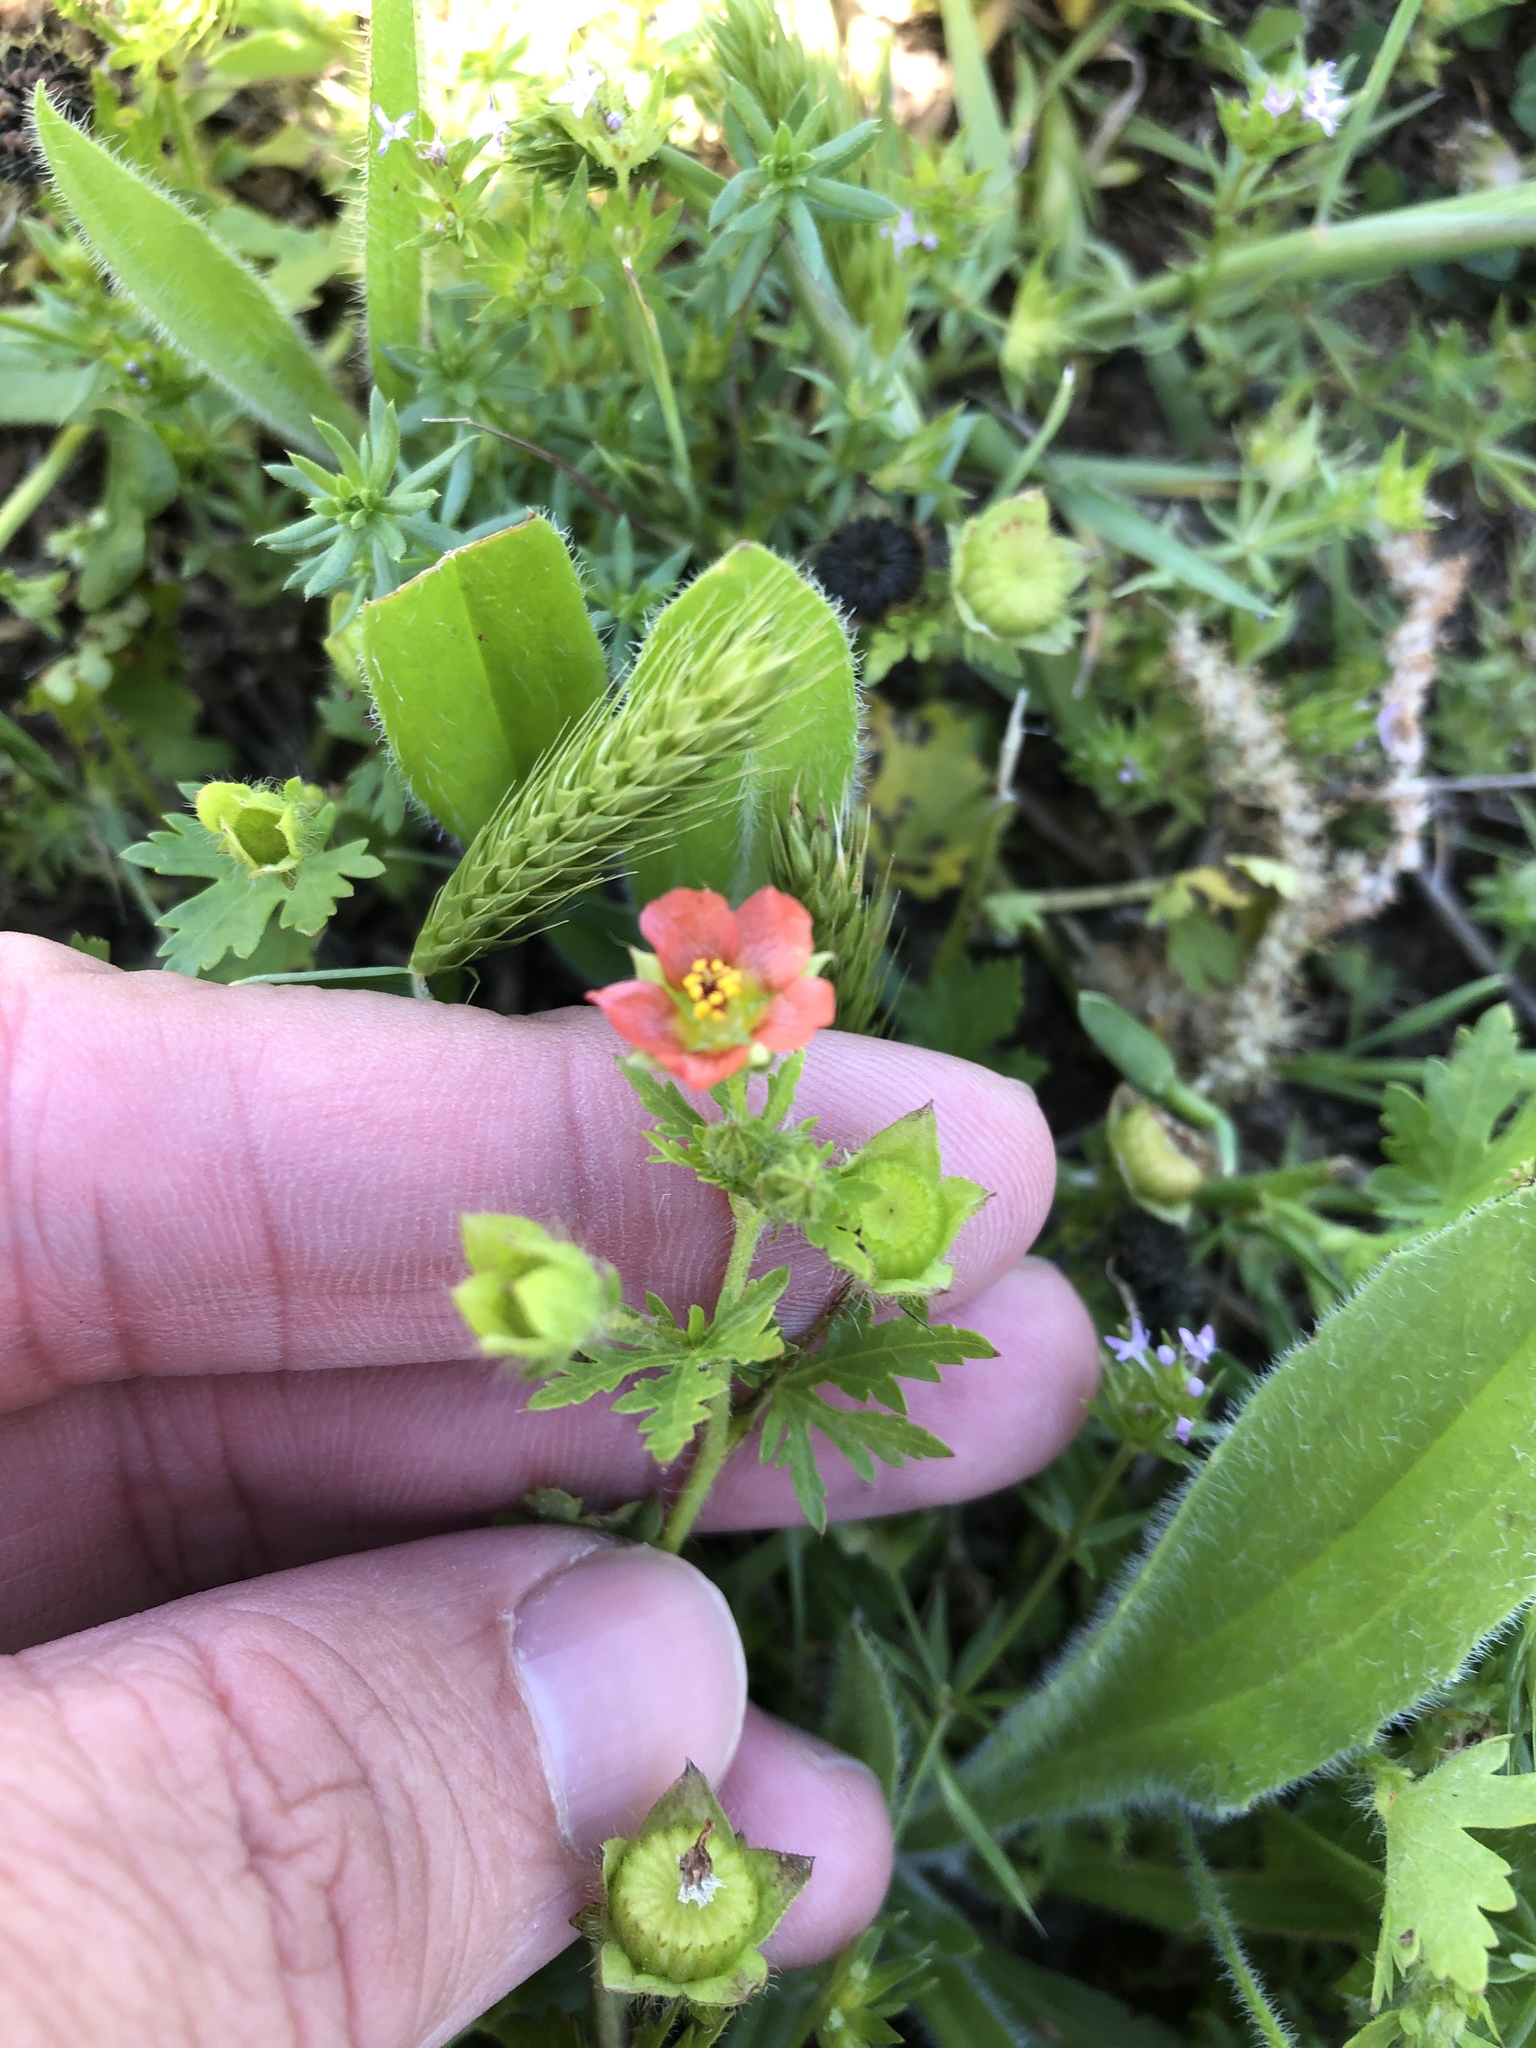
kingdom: Plantae
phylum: Tracheophyta
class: Magnoliopsida
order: Malvales
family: Malvaceae
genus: Modiola
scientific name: Modiola caroliniana
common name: Carolina bristlemallow
